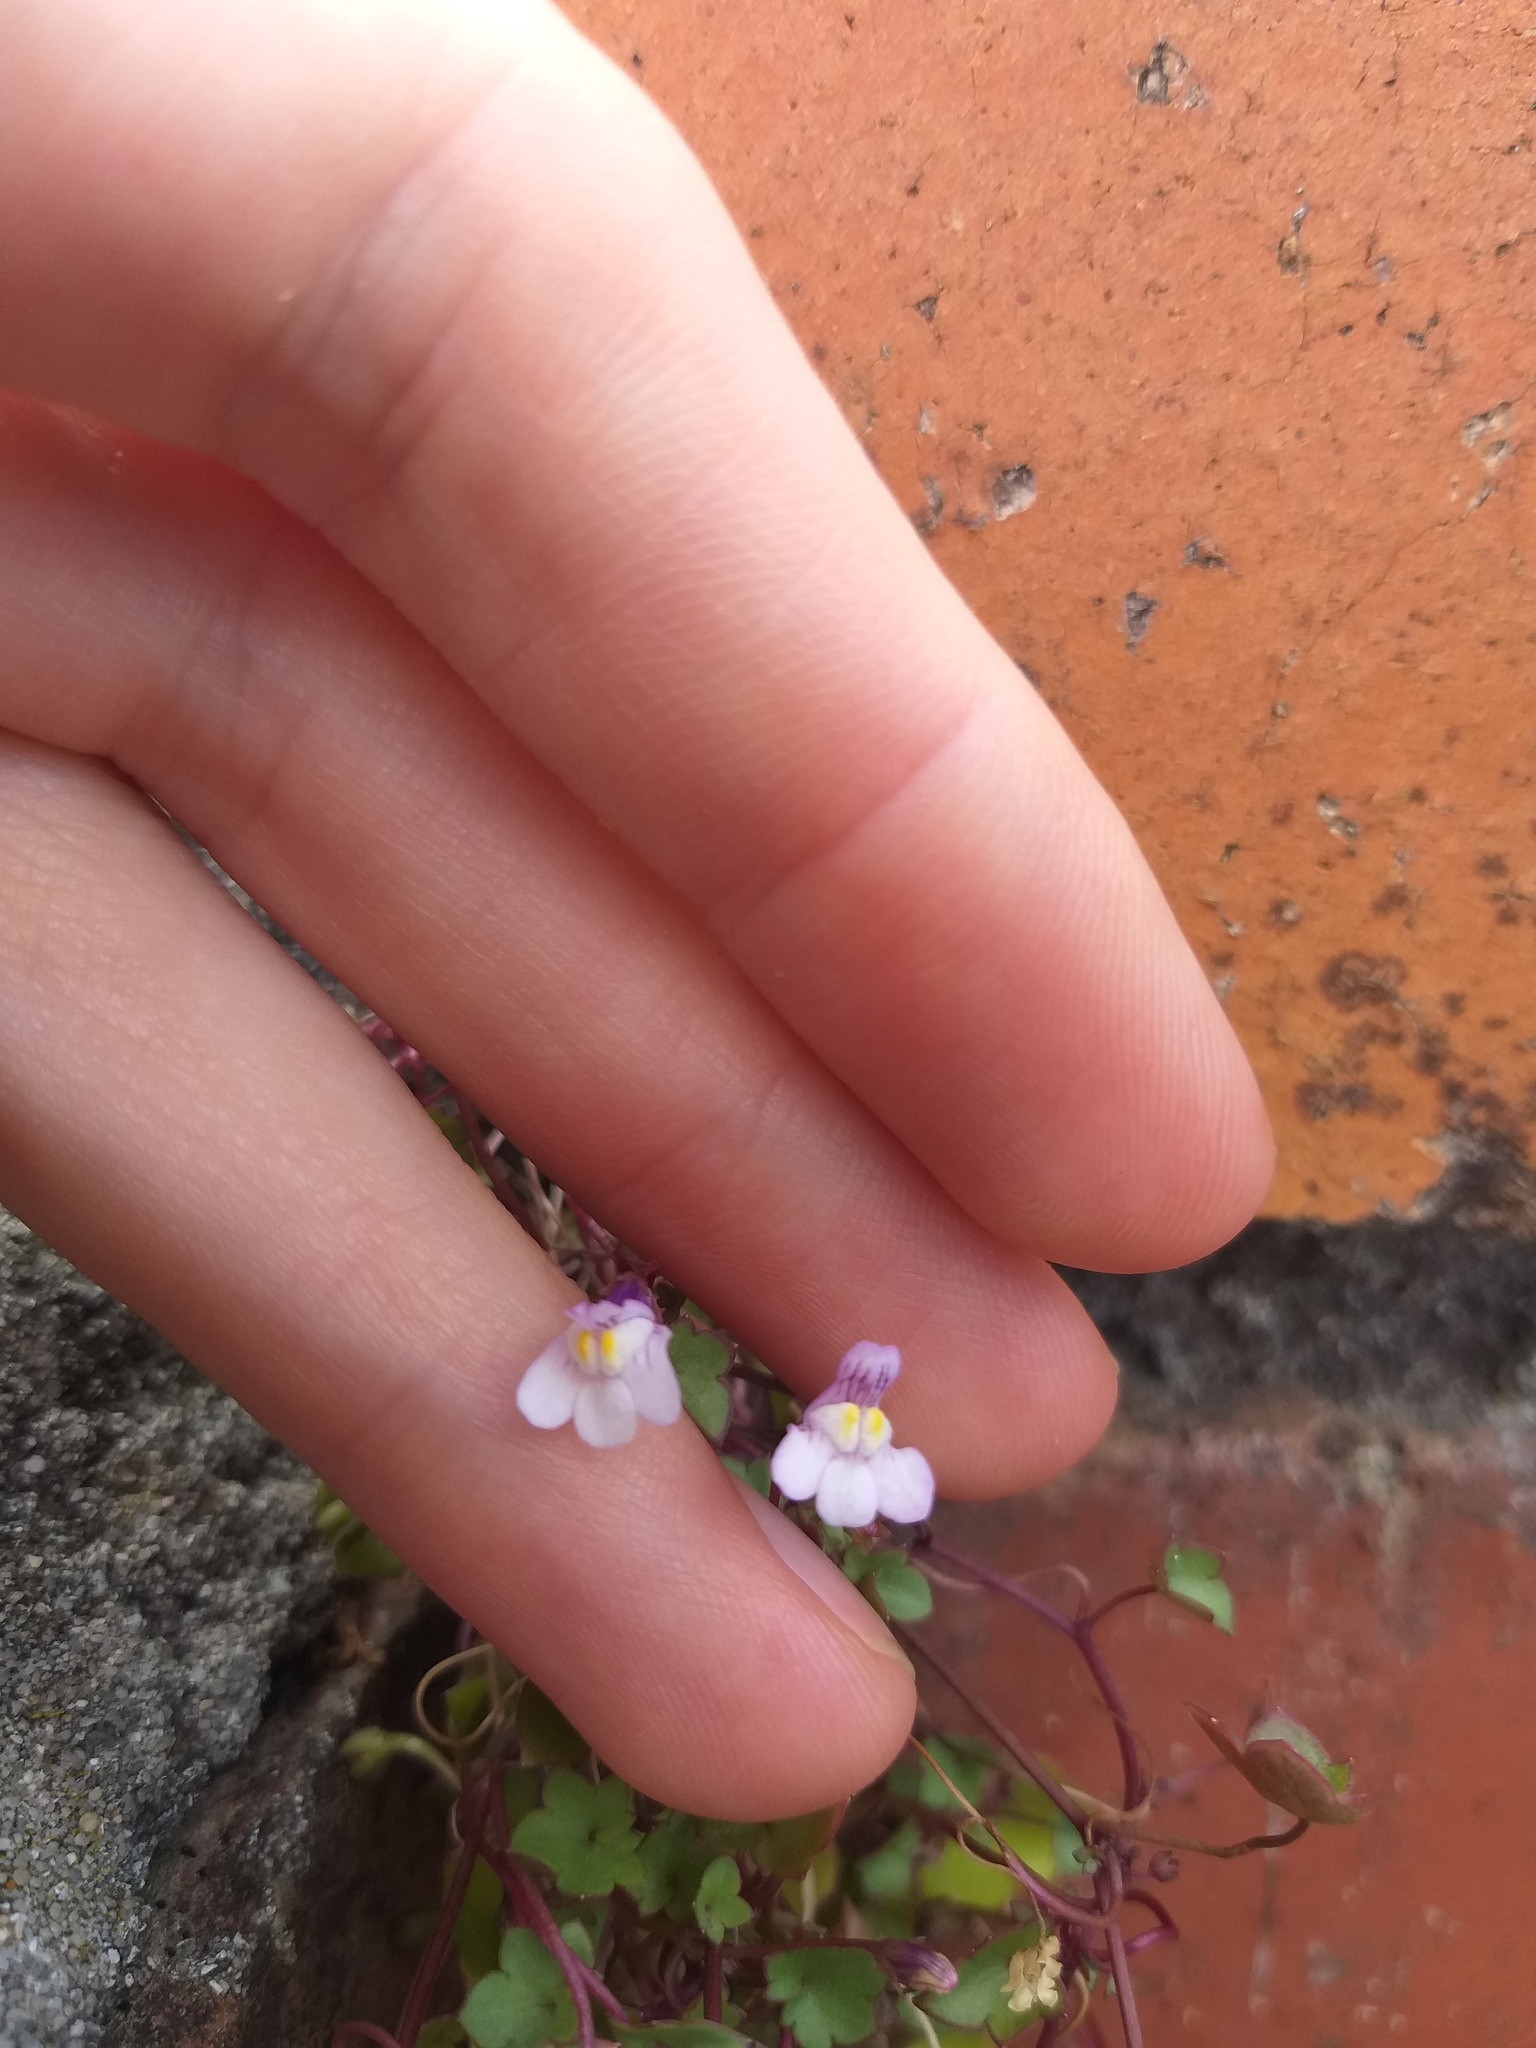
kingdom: Plantae
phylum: Tracheophyta
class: Magnoliopsida
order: Lamiales
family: Plantaginaceae
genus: Cymbalaria
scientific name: Cymbalaria muralis
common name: Ivy-leaved toadflax
